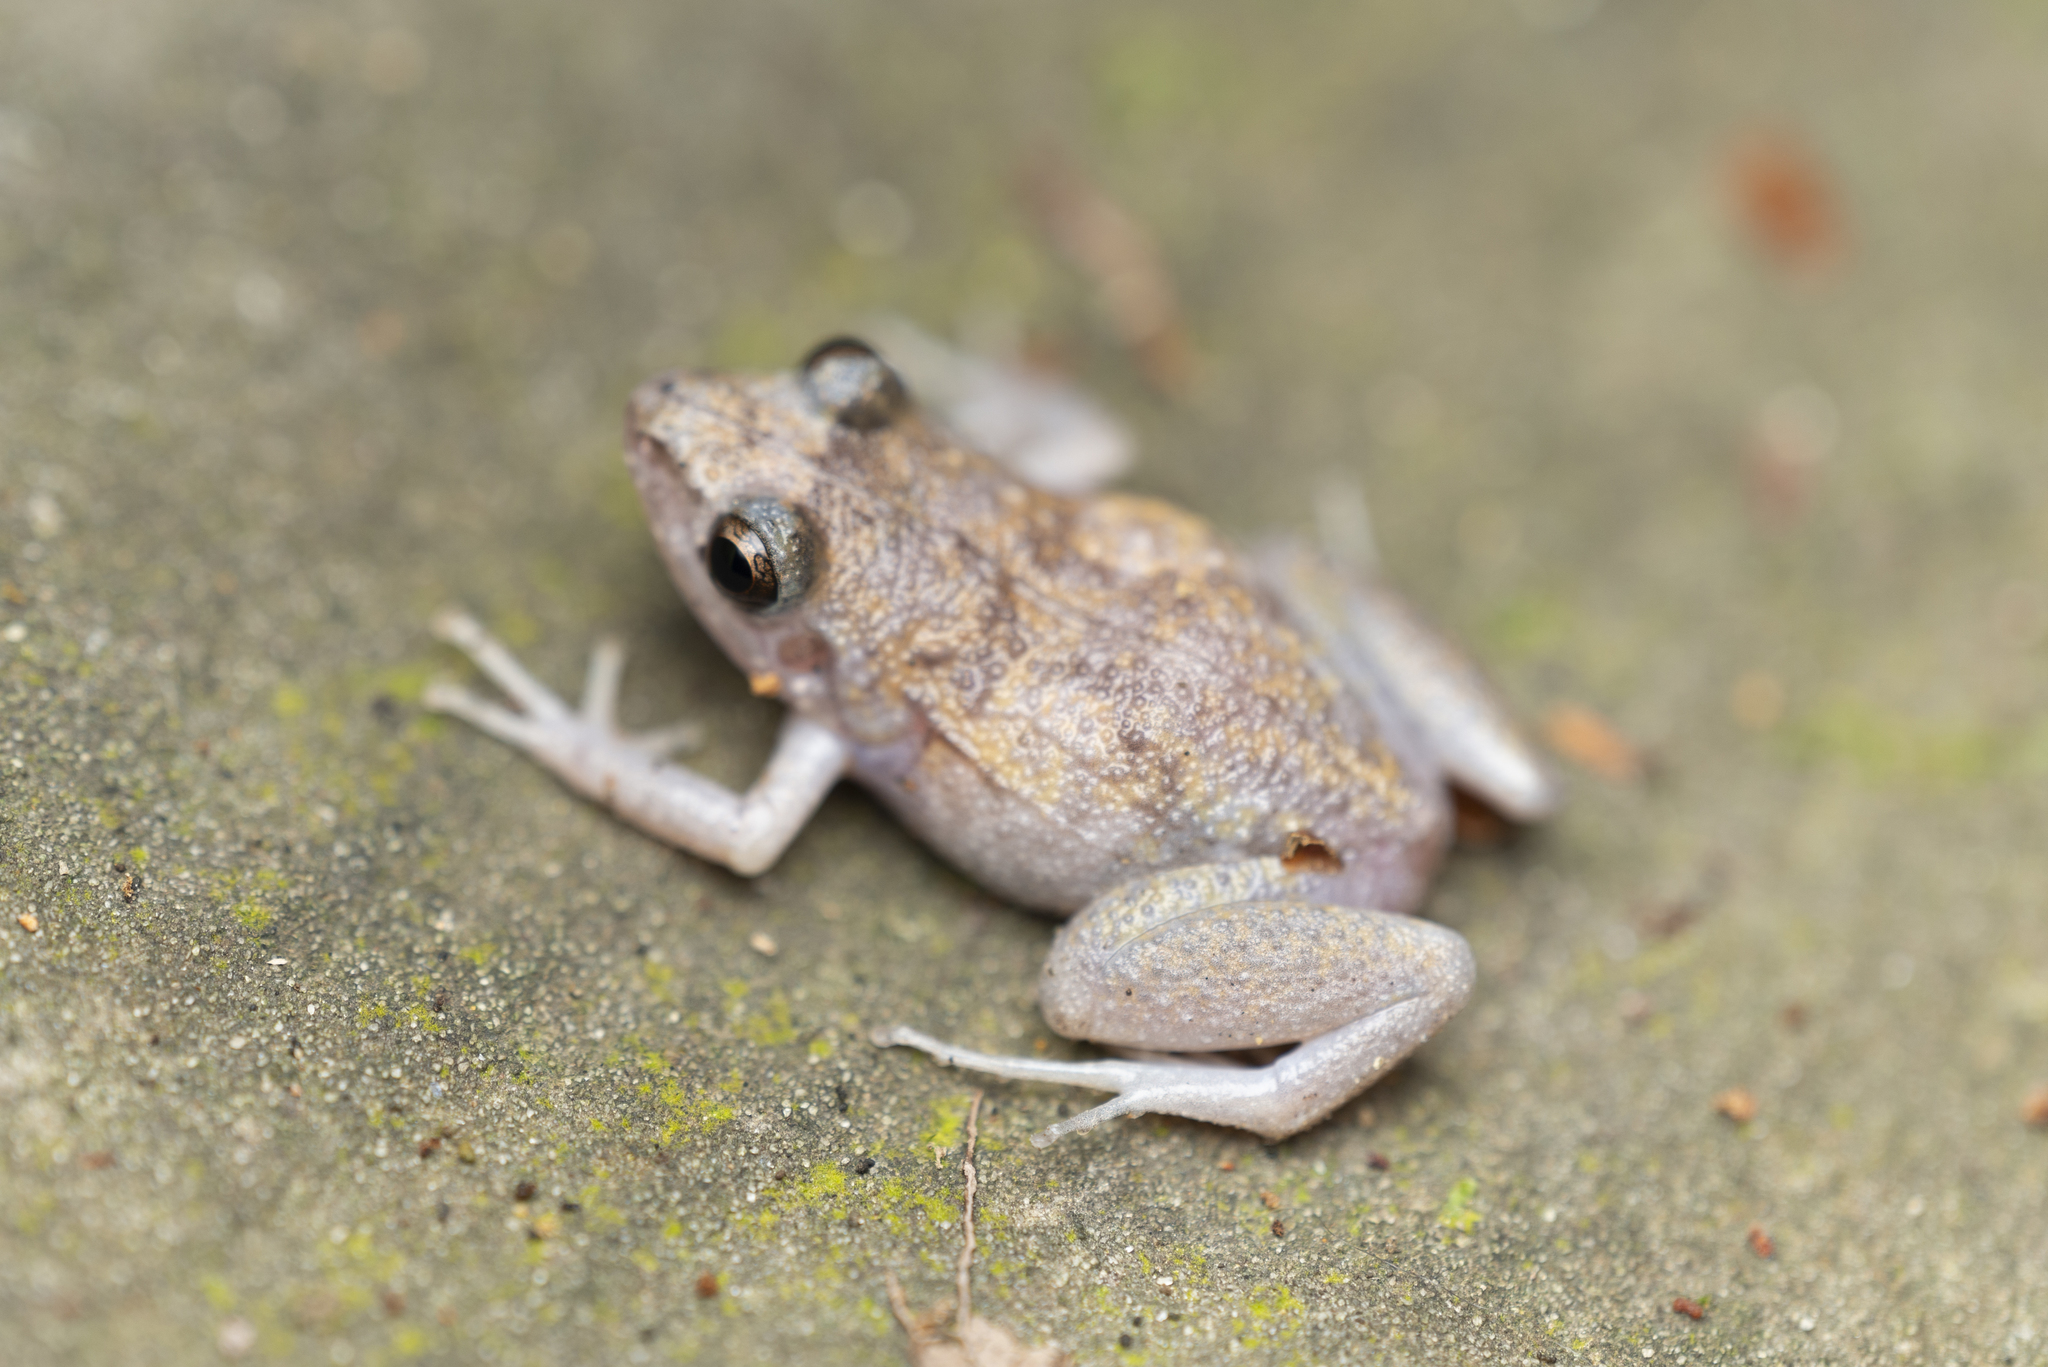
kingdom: Animalia
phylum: Chordata
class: Amphibia
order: Anura
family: Eleutherodactylidae
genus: Eleutherodactylus
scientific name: Eleutherodactylus planirostris
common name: Greenhouse frog
